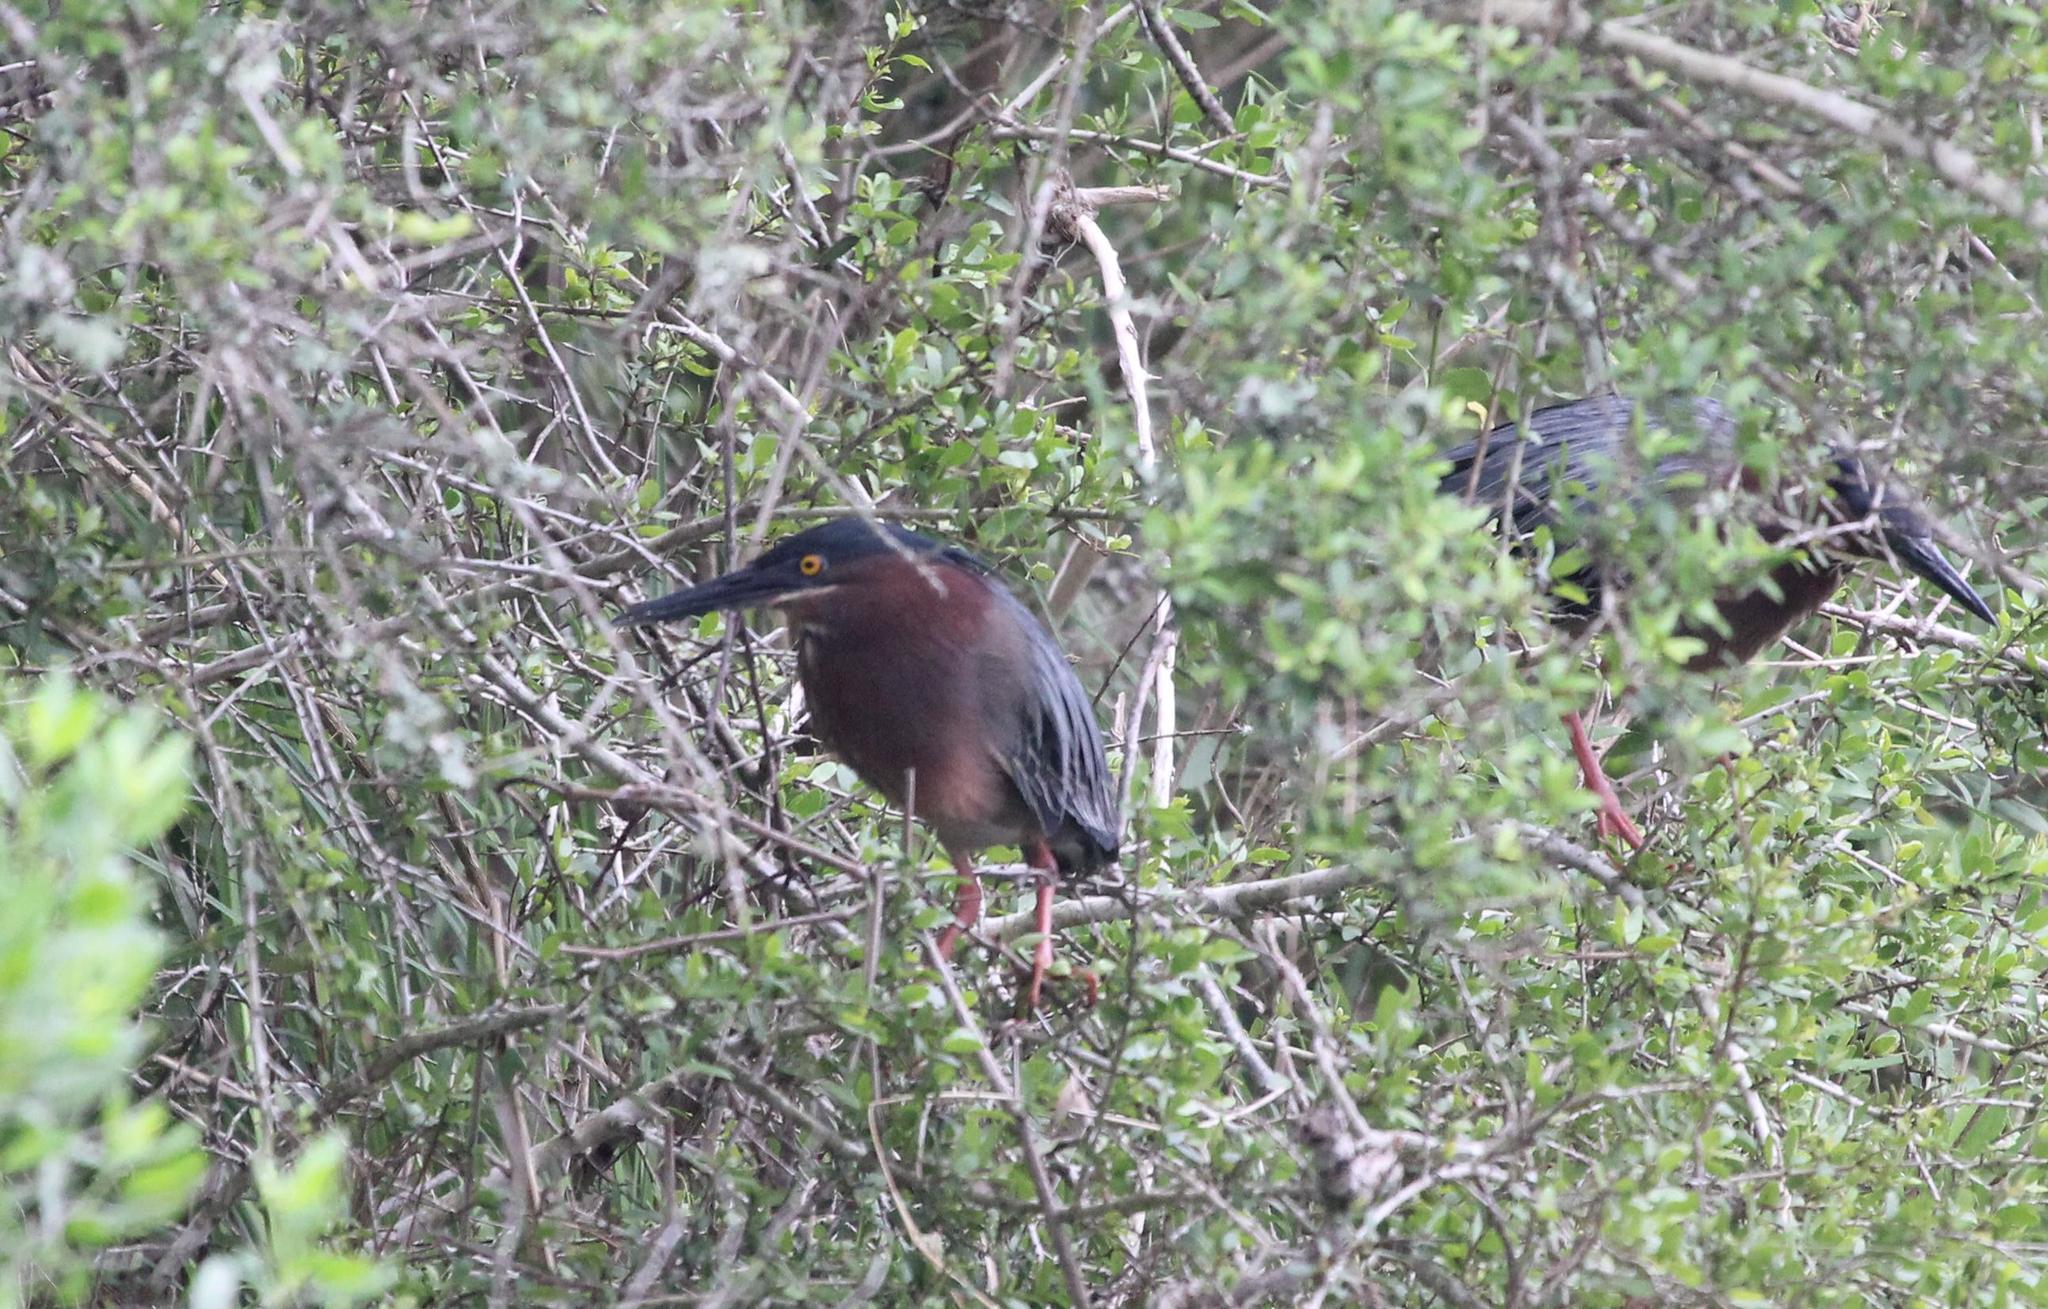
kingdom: Animalia
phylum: Chordata
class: Aves
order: Pelecaniformes
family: Ardeidae
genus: Butorides
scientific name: Butorides virescens
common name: Green heron
